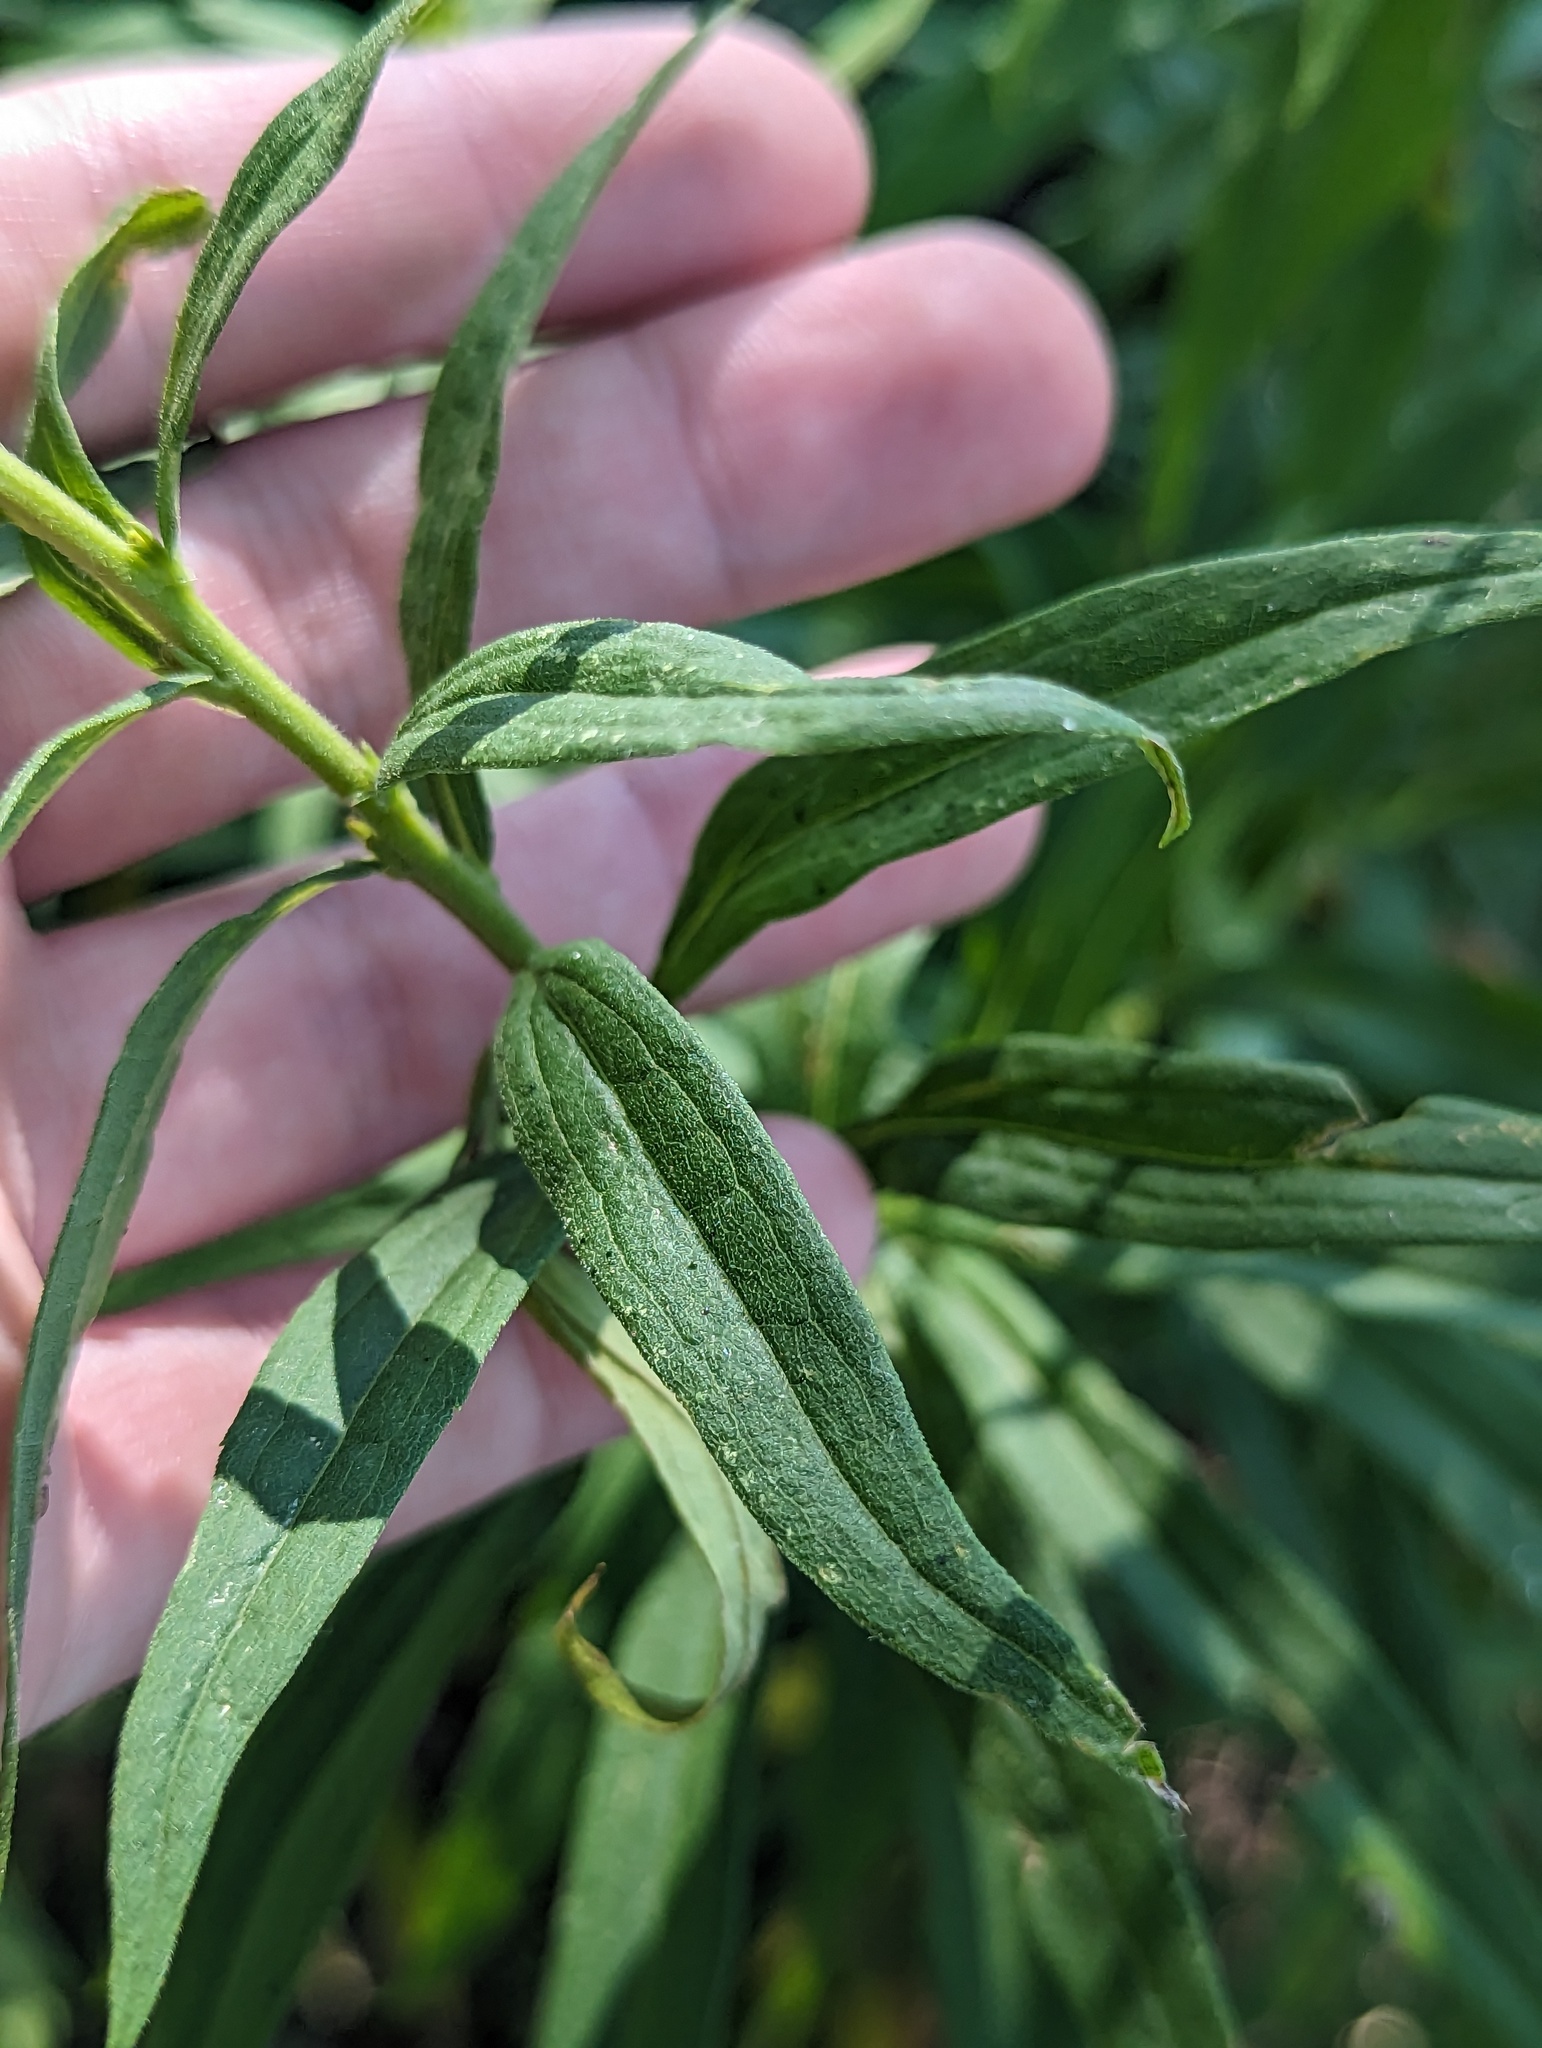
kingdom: Plantae
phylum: Tracheophyta
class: Magnoliopsida
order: Asterales
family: Asteraceae
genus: Solidago
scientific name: Solidago altissima
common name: Late goldenrod
